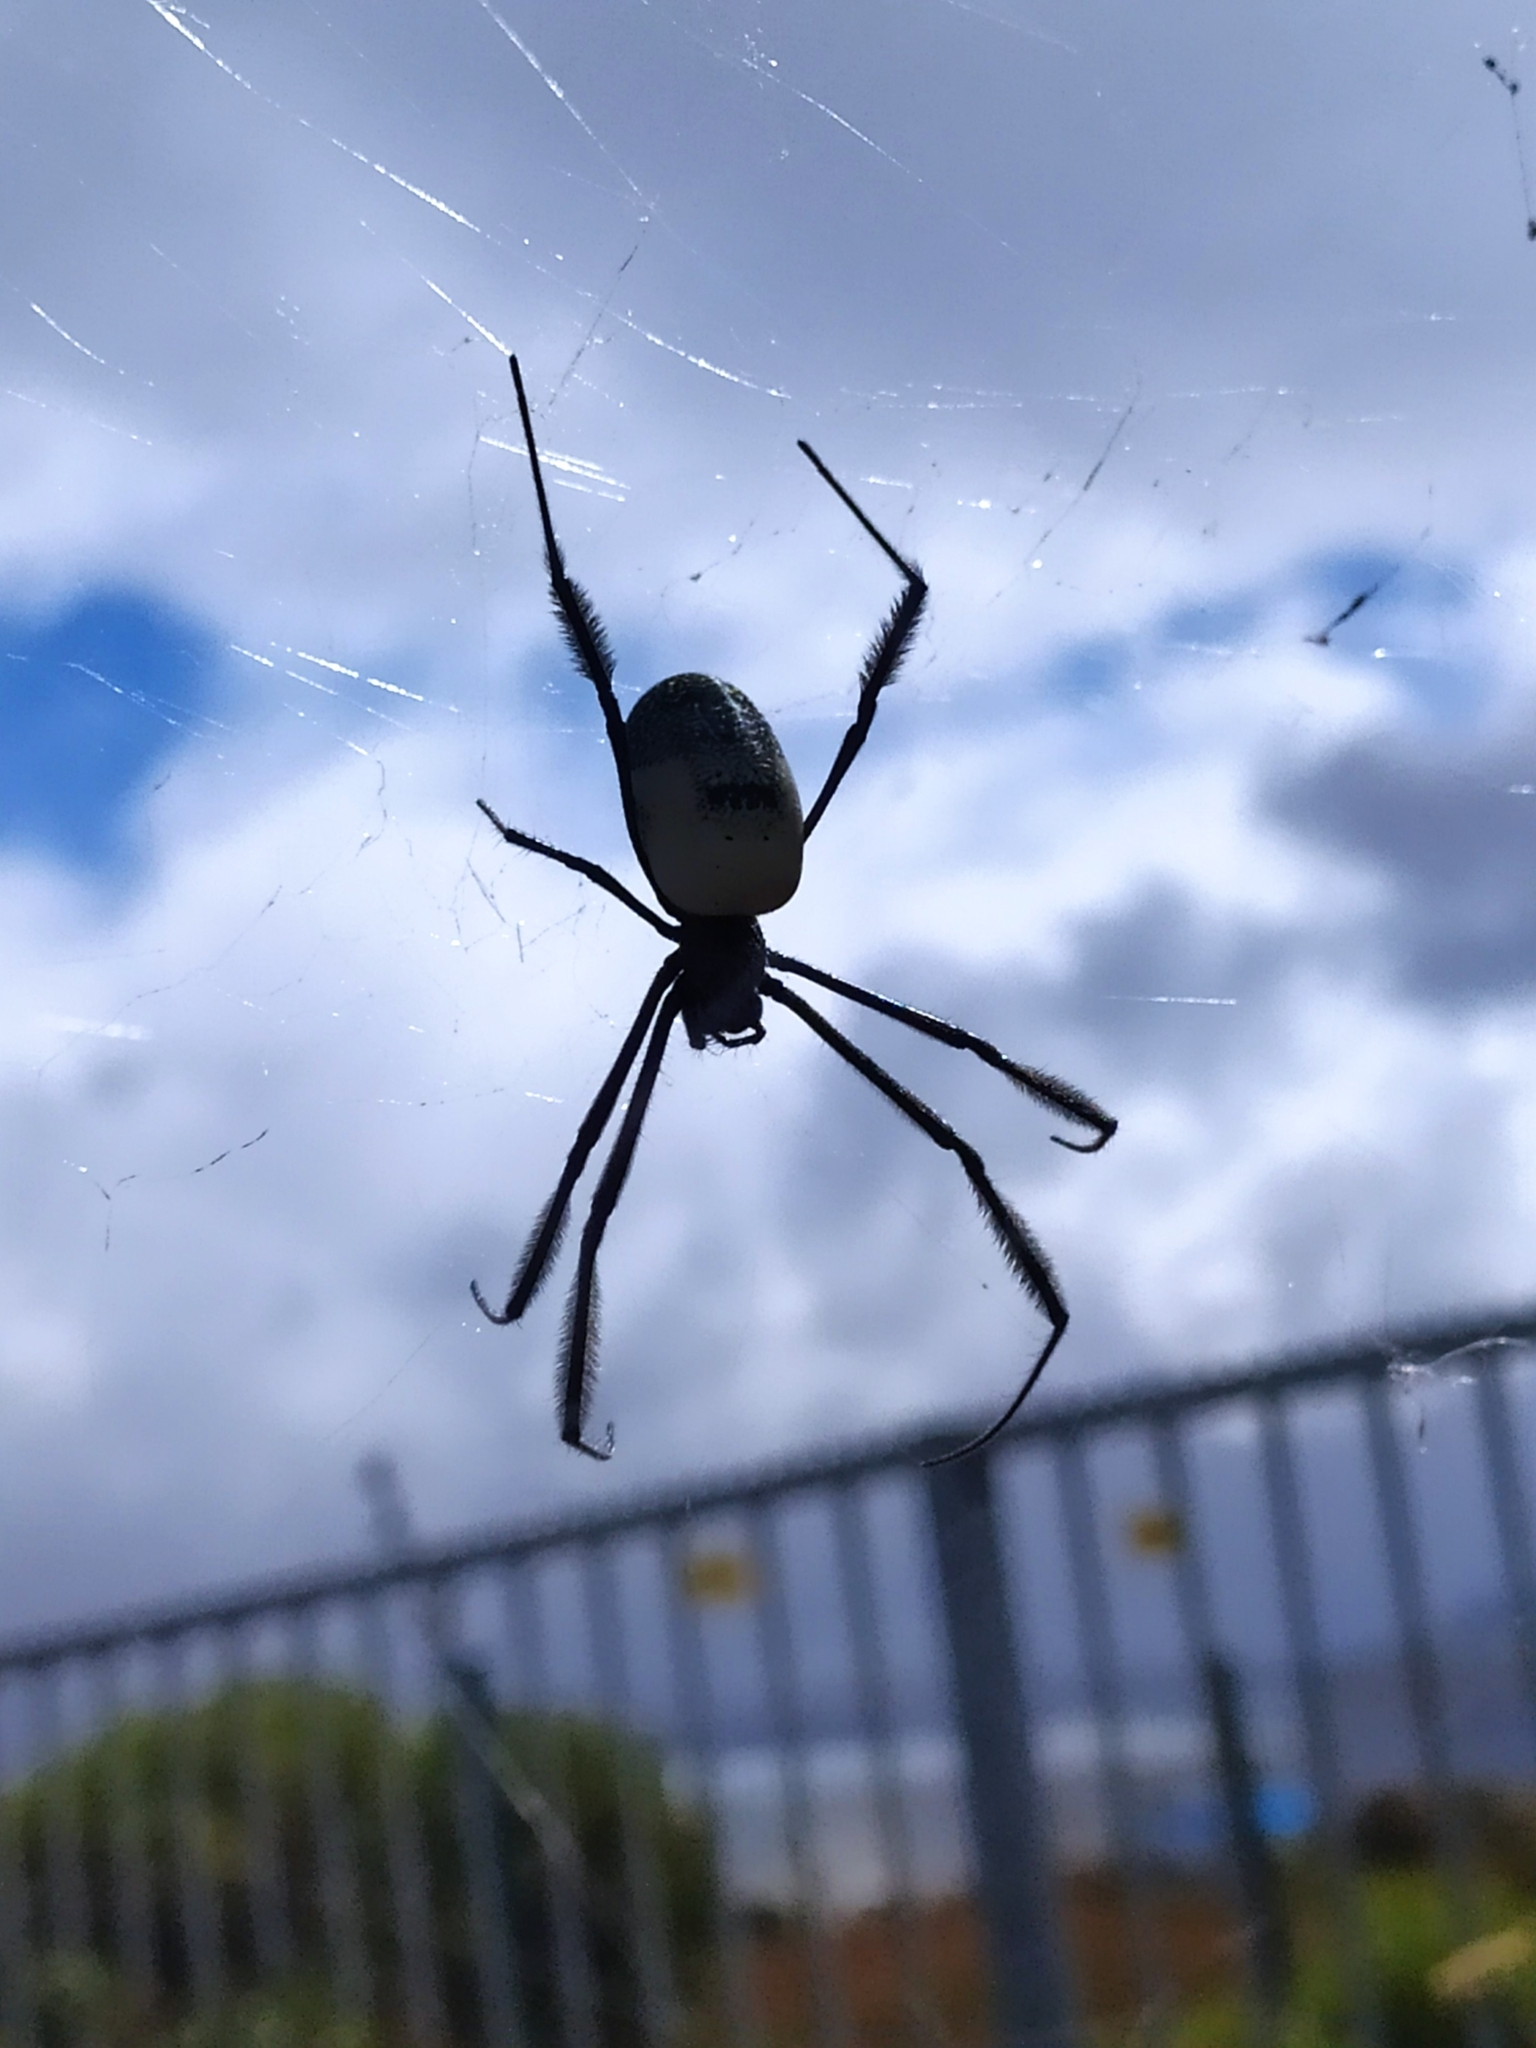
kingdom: Animalia
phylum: Arthropoda
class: Arachnida
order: Araneae
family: Araneidae
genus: Trichonephila
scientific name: Trichonephila fenestrata
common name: Hairy golden orb weaver
